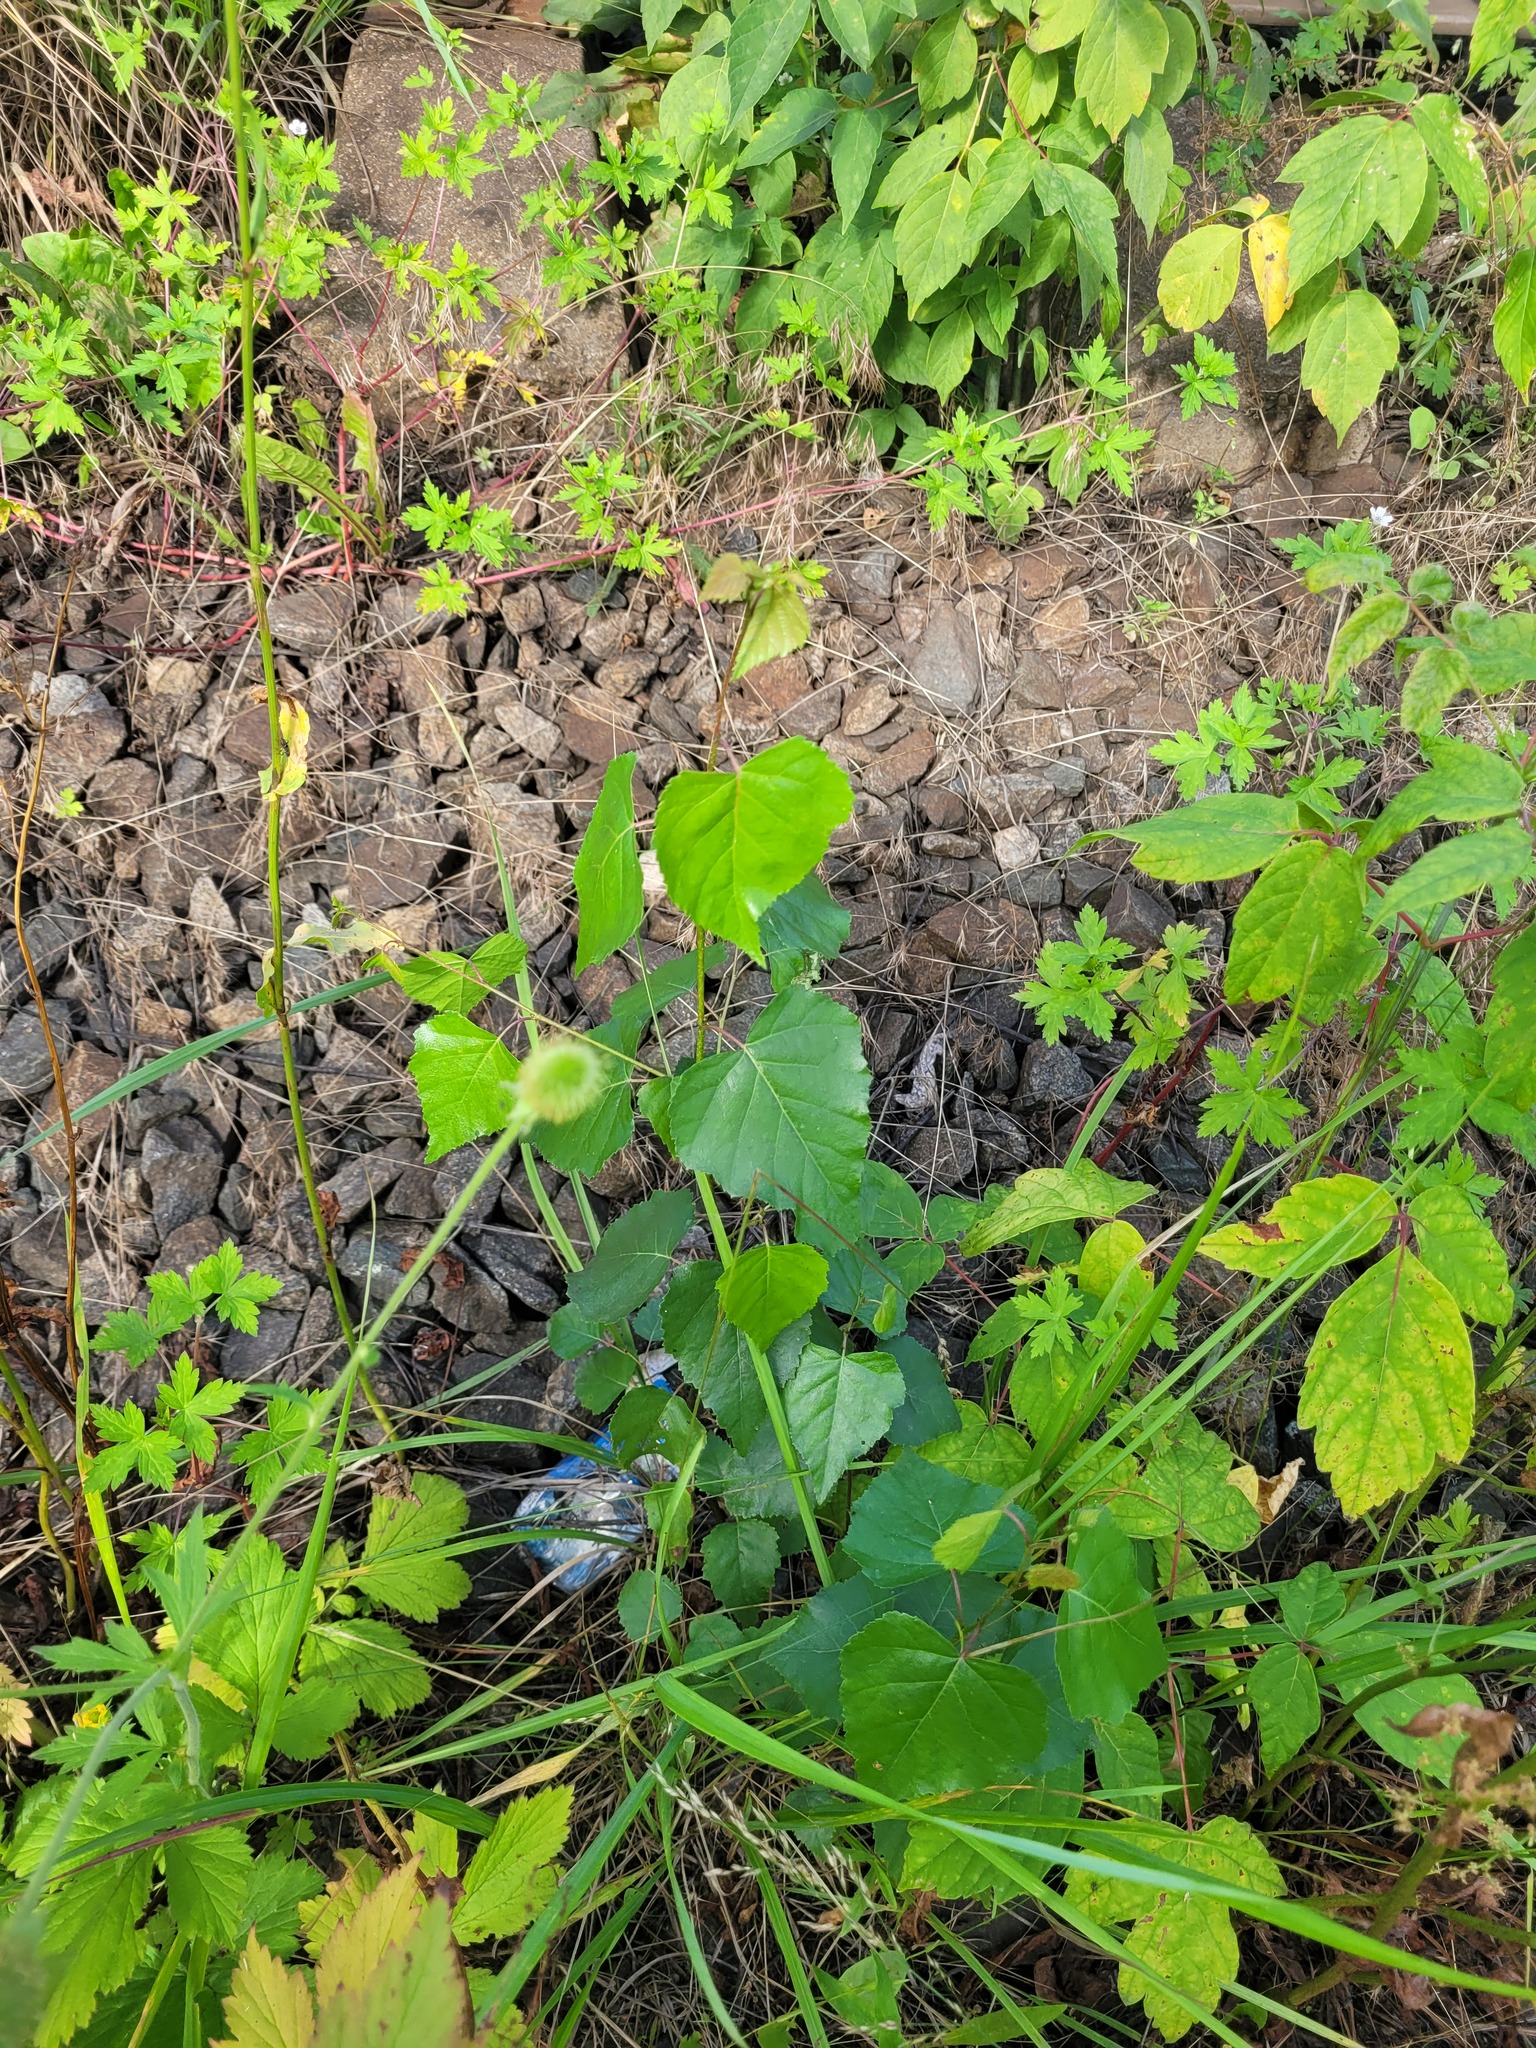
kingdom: Plantae
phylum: Tracheophyta
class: Magnoliopsida
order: Fagales
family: Betulaceae
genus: Betula
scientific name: Betula pendula
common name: Silver birch
